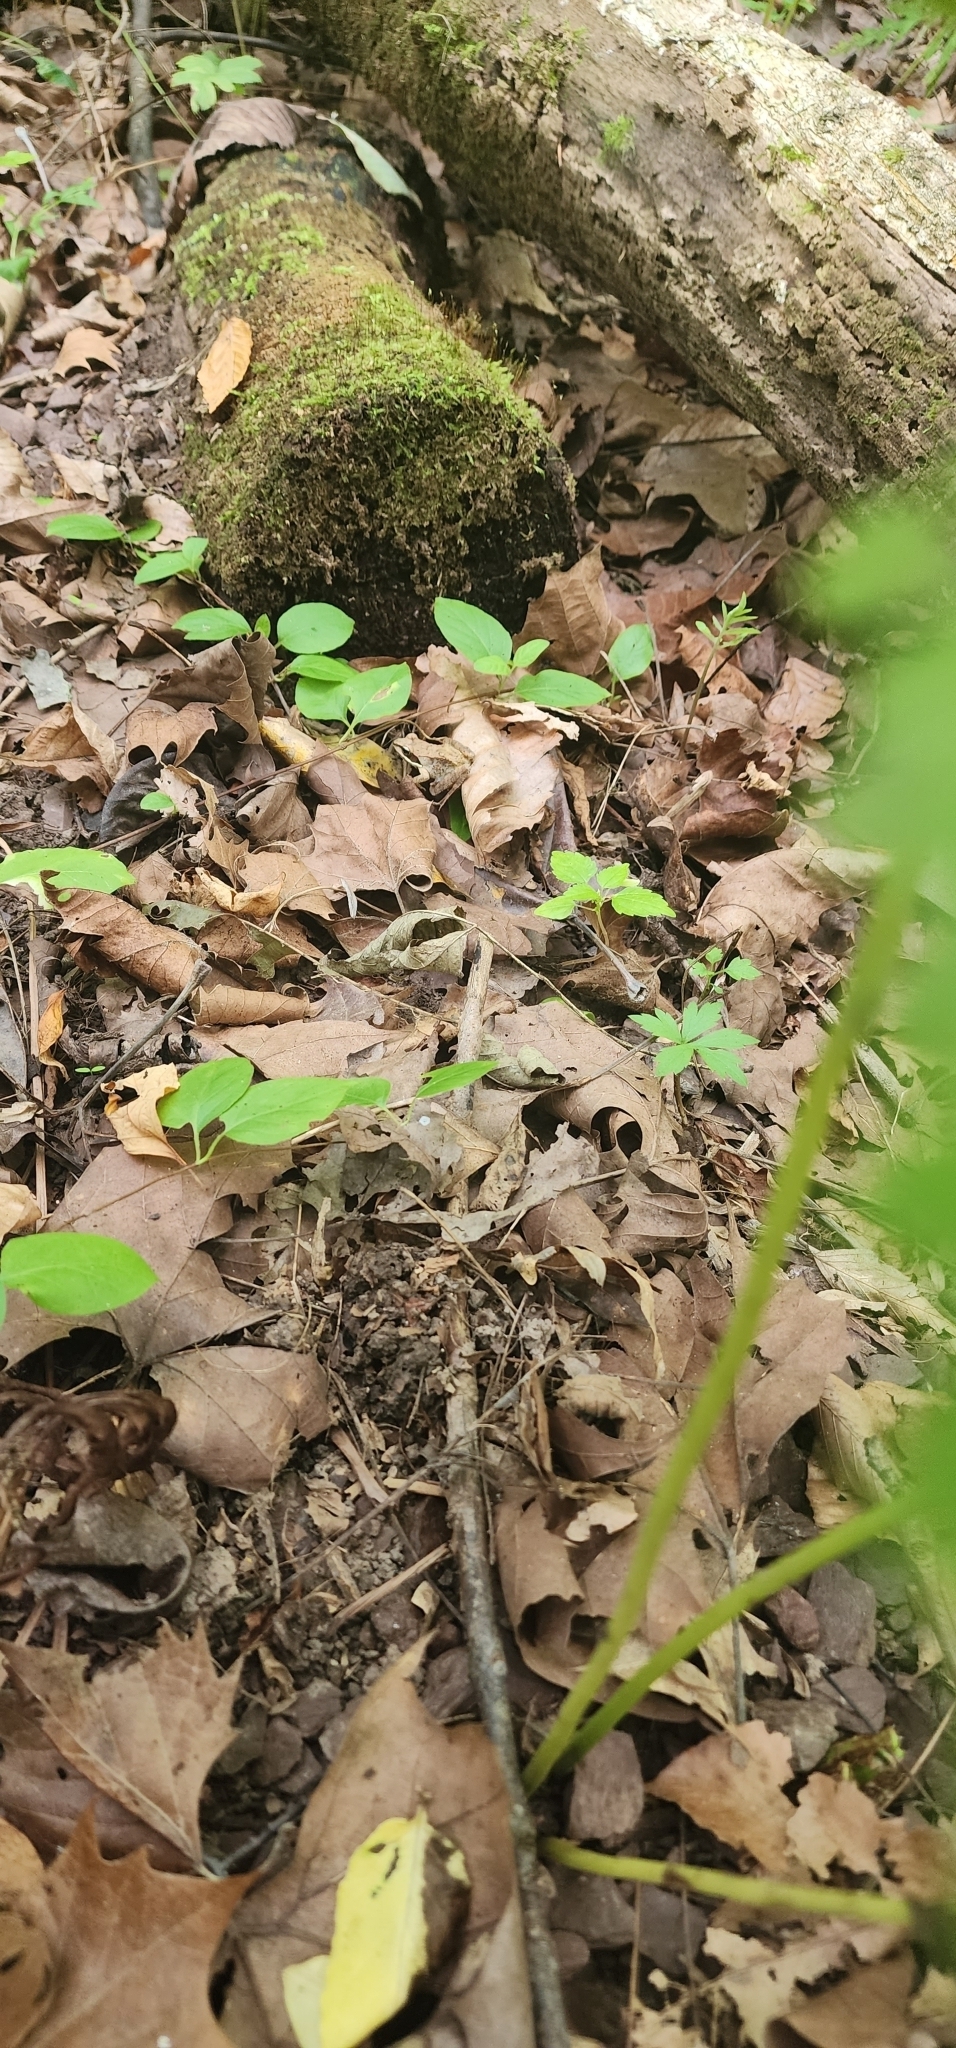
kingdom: Animalia
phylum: Chordata
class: Amphibia
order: Anura
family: Ranidae
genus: Lithobates
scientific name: Lithobates sylvaticus
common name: Wood frog
